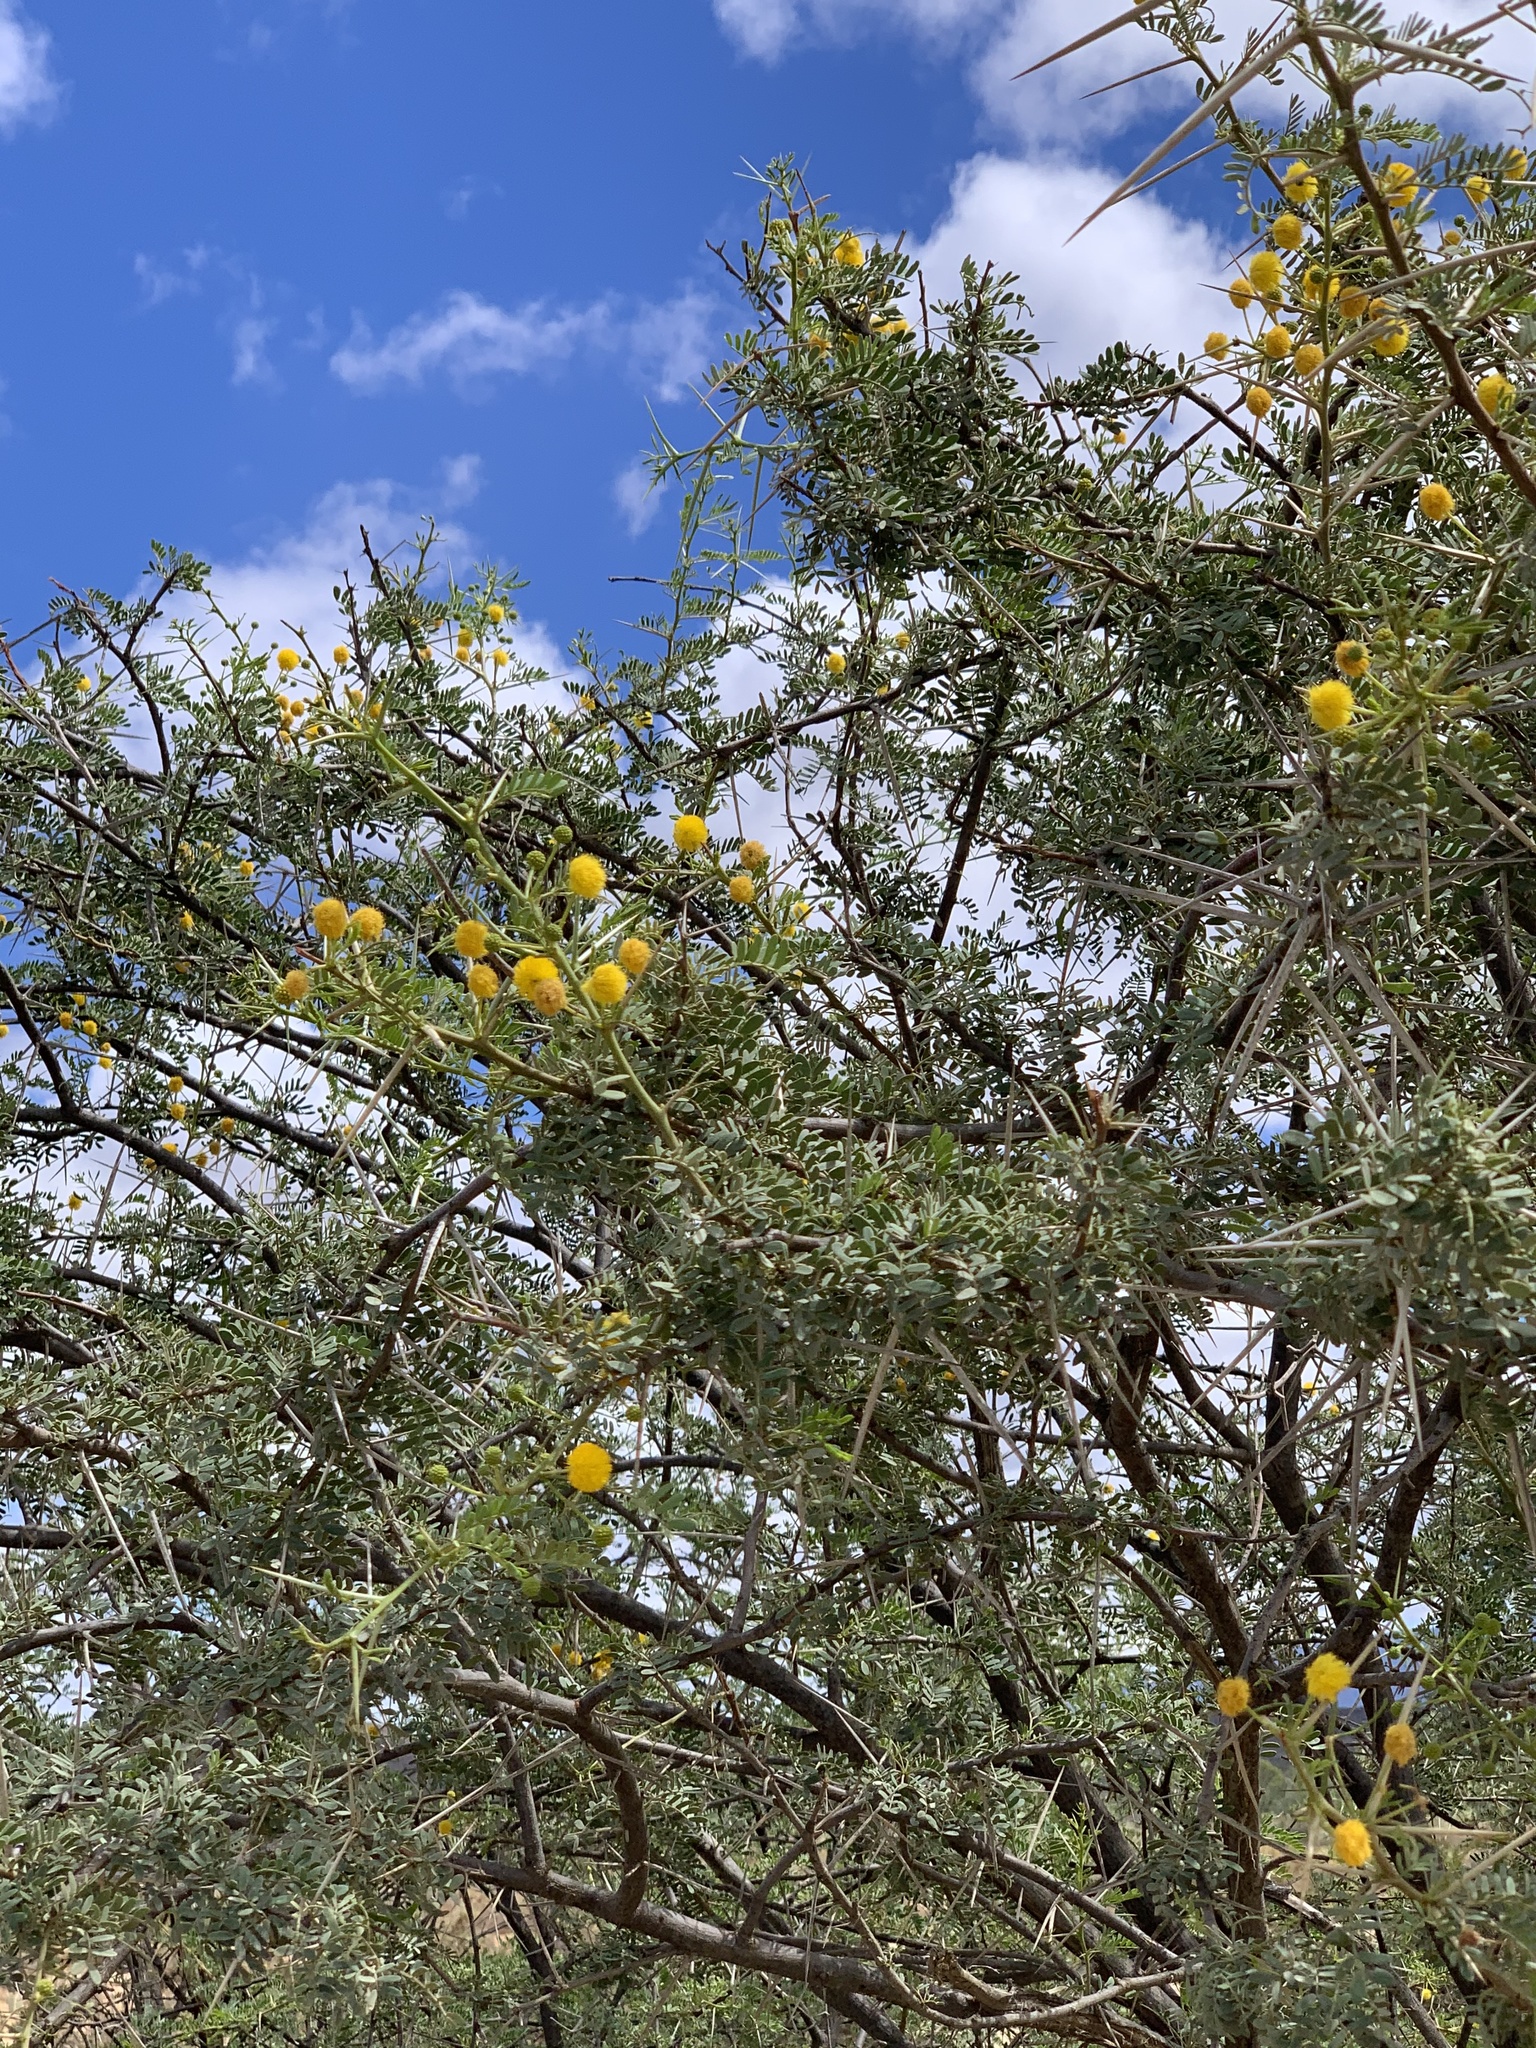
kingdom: Plantae
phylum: Tracheophyta
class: Magnoliopsida
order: Fabales
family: Fabaceae
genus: Vachellia
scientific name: Vachellia karroo
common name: Sweet thorn
